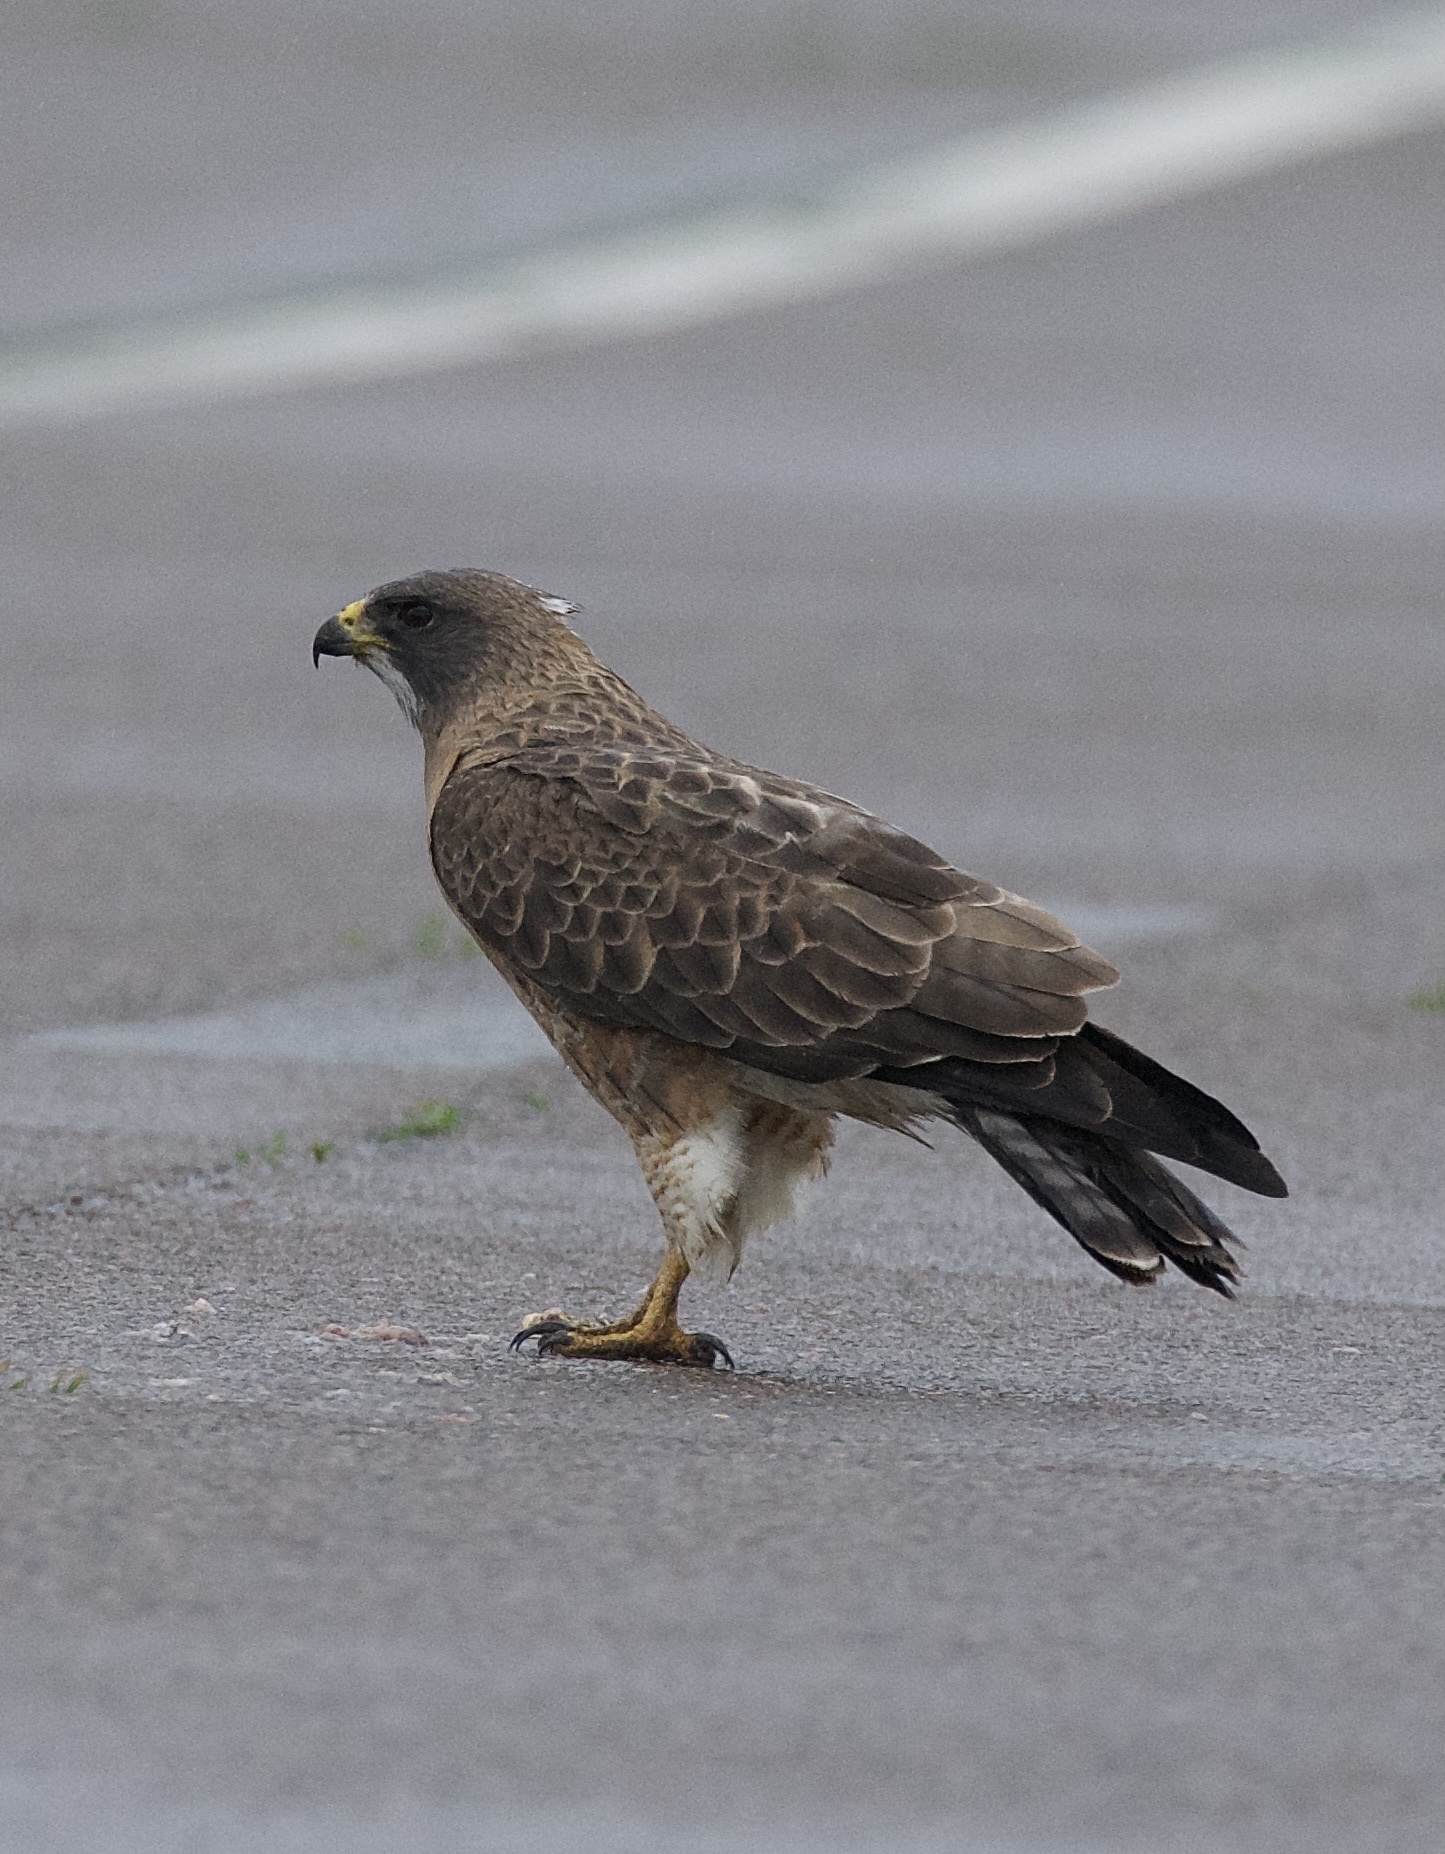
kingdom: Animalia
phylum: Chordata
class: Aves
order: Accipitriformes
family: Accipitridae
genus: Buteo
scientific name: Buteo swainsoni
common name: Swainson's hawk
